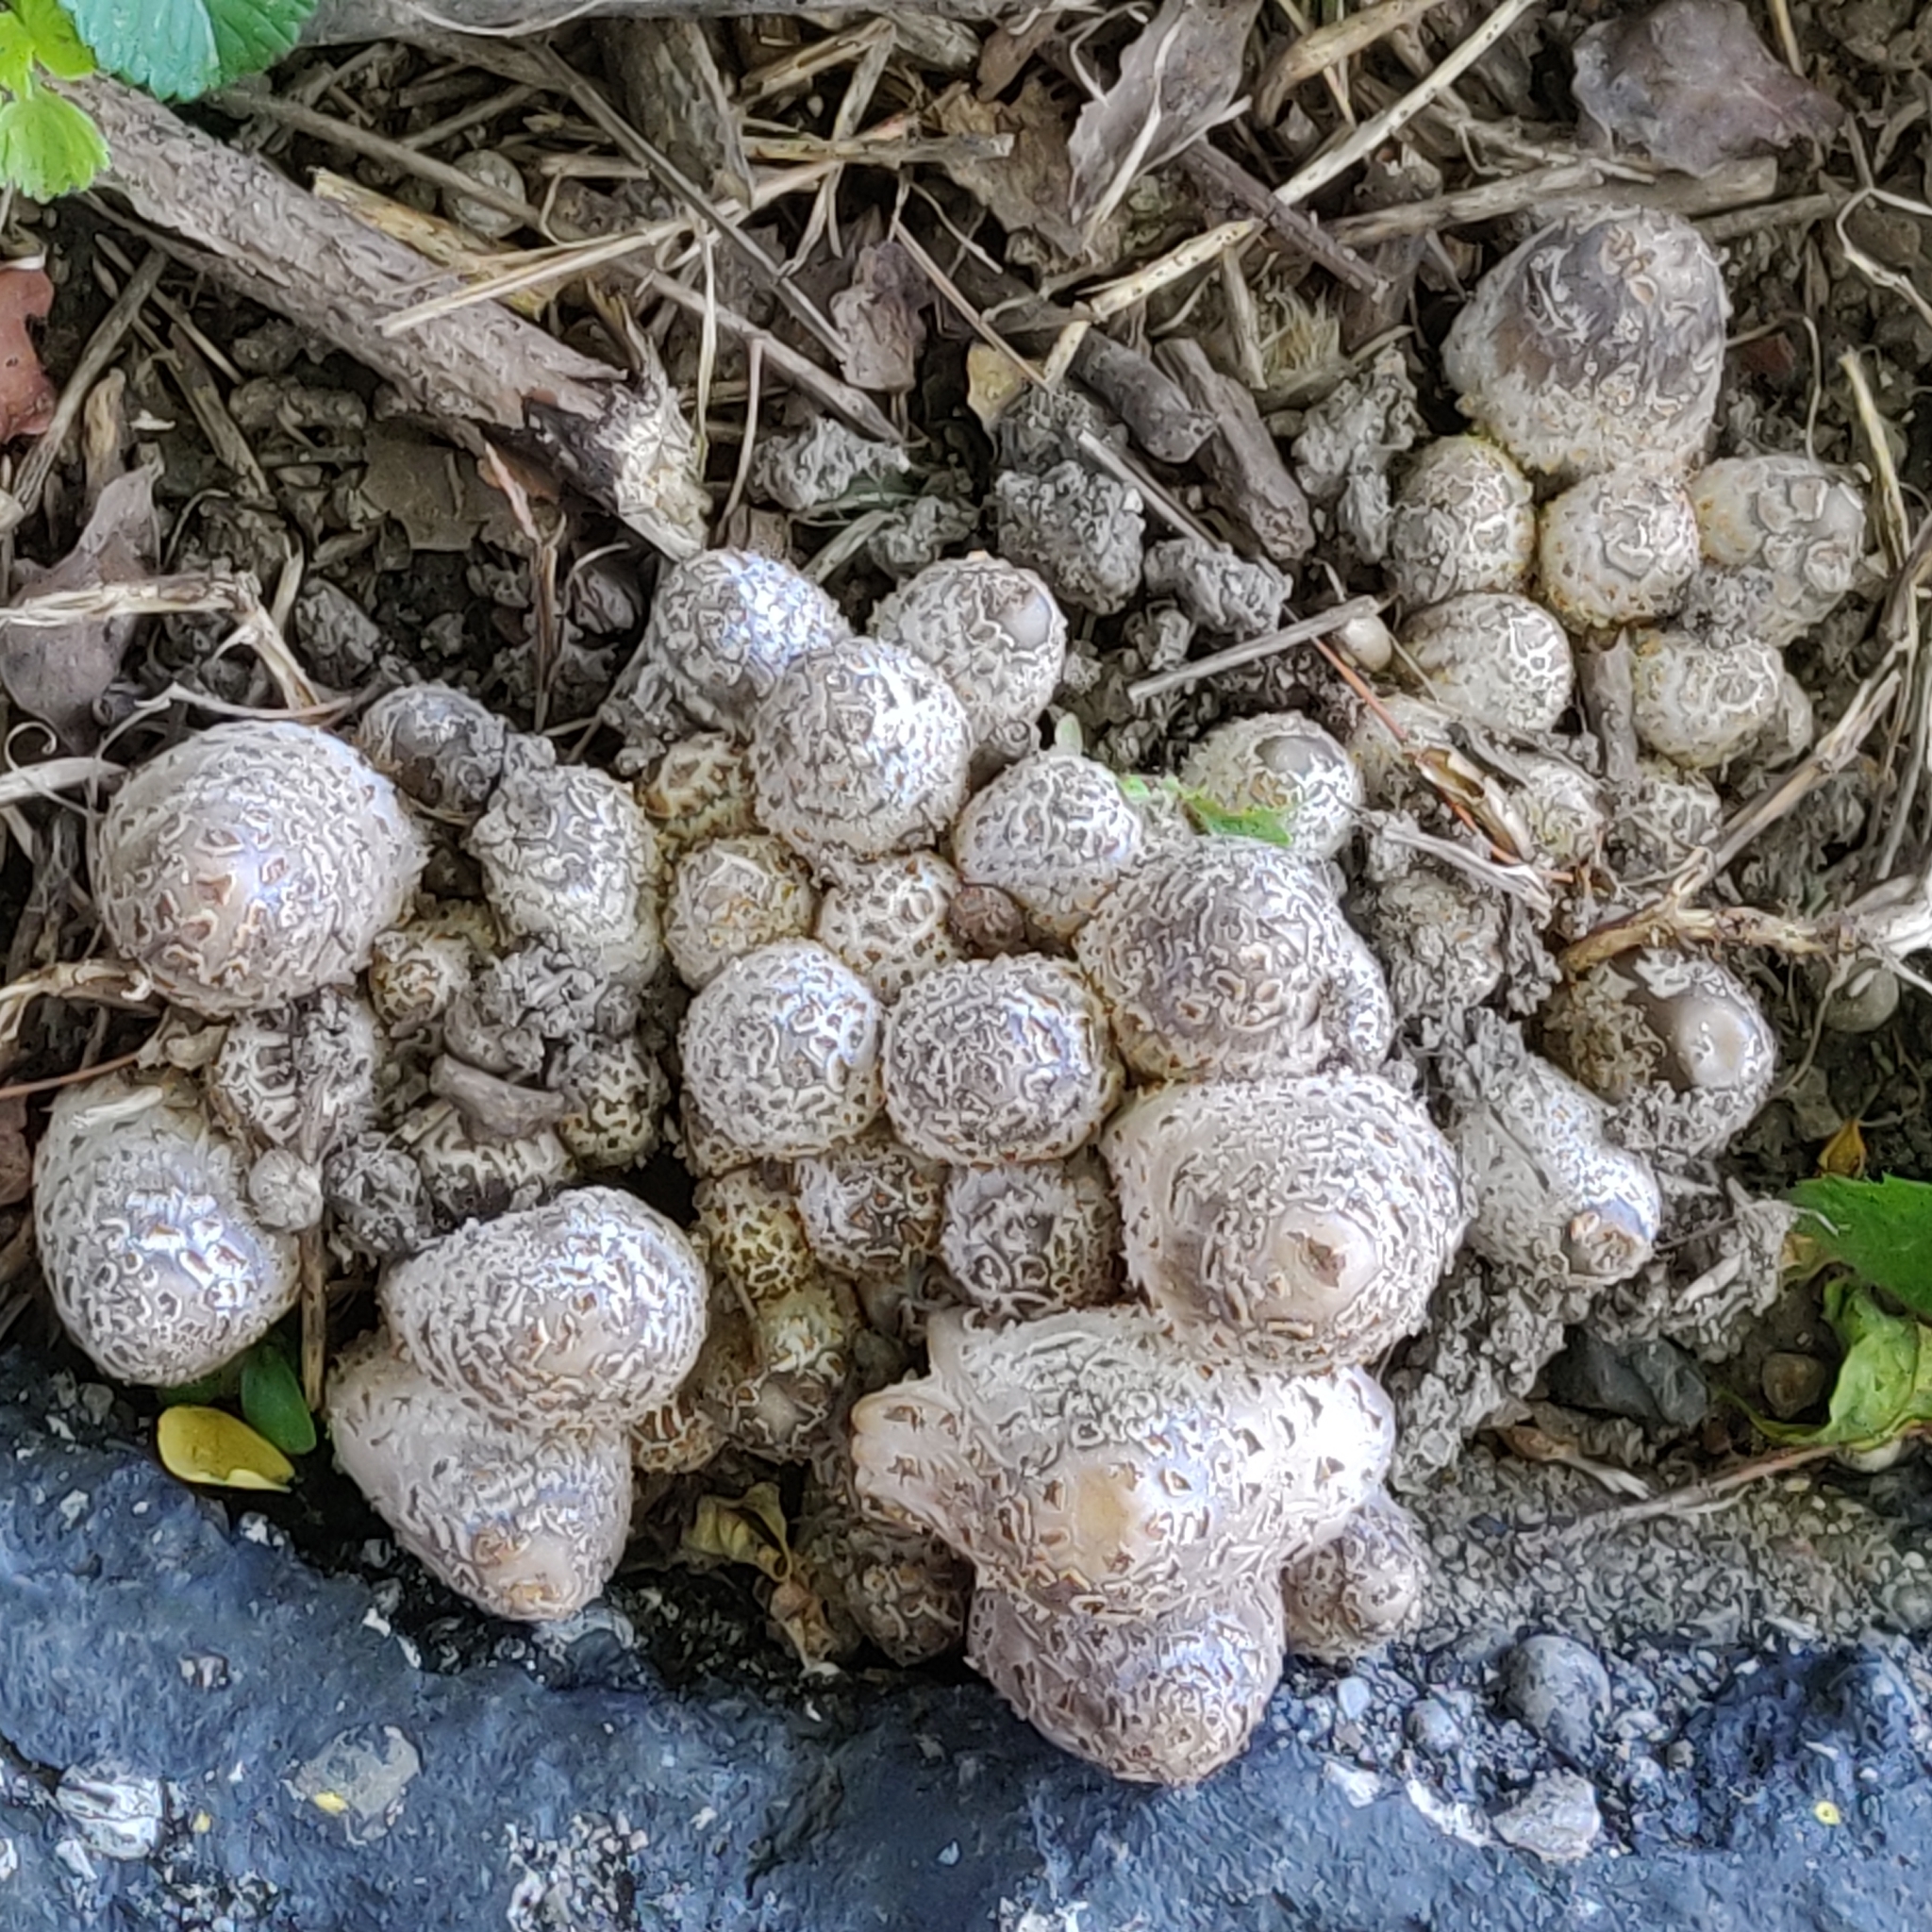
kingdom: Fungi
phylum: Basidiomycota
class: Agaricomycetes
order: Agaricales
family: Psathyrellaceae
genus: Coprinopsis
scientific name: Coprinopsis variegata
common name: Scaly ink cap
